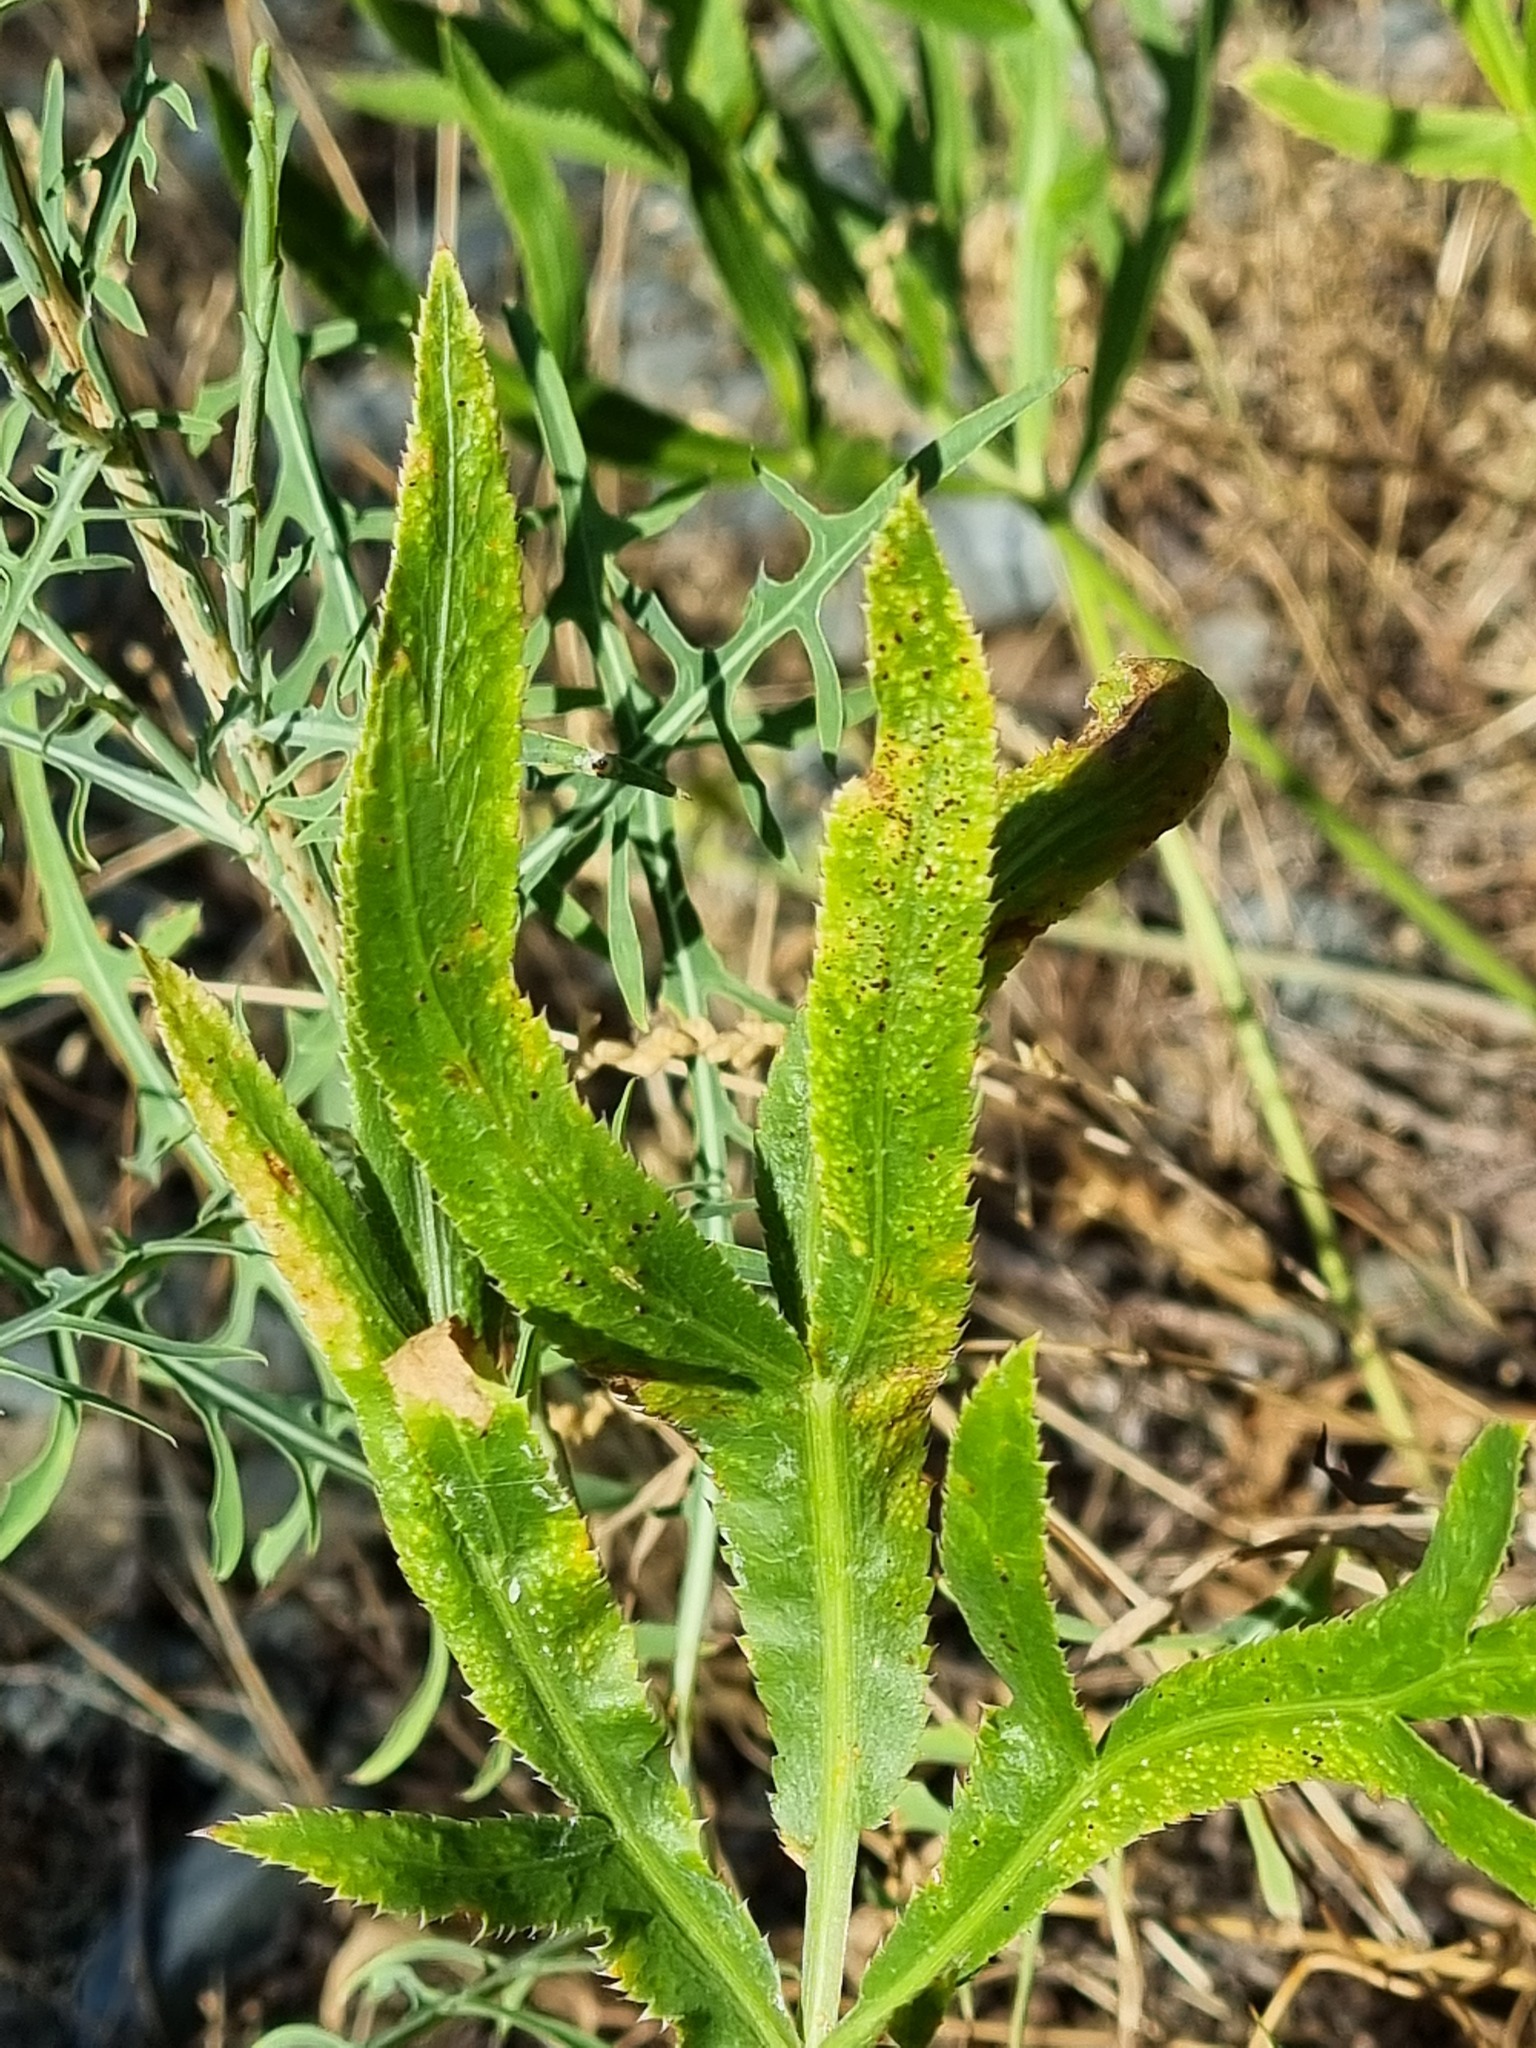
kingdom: Plantae
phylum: Tracheophyta
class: Magnoliopsida
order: Apiales
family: Apiaceae
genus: Falcaria
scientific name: Falcaria vulgaris
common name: Longleaf
